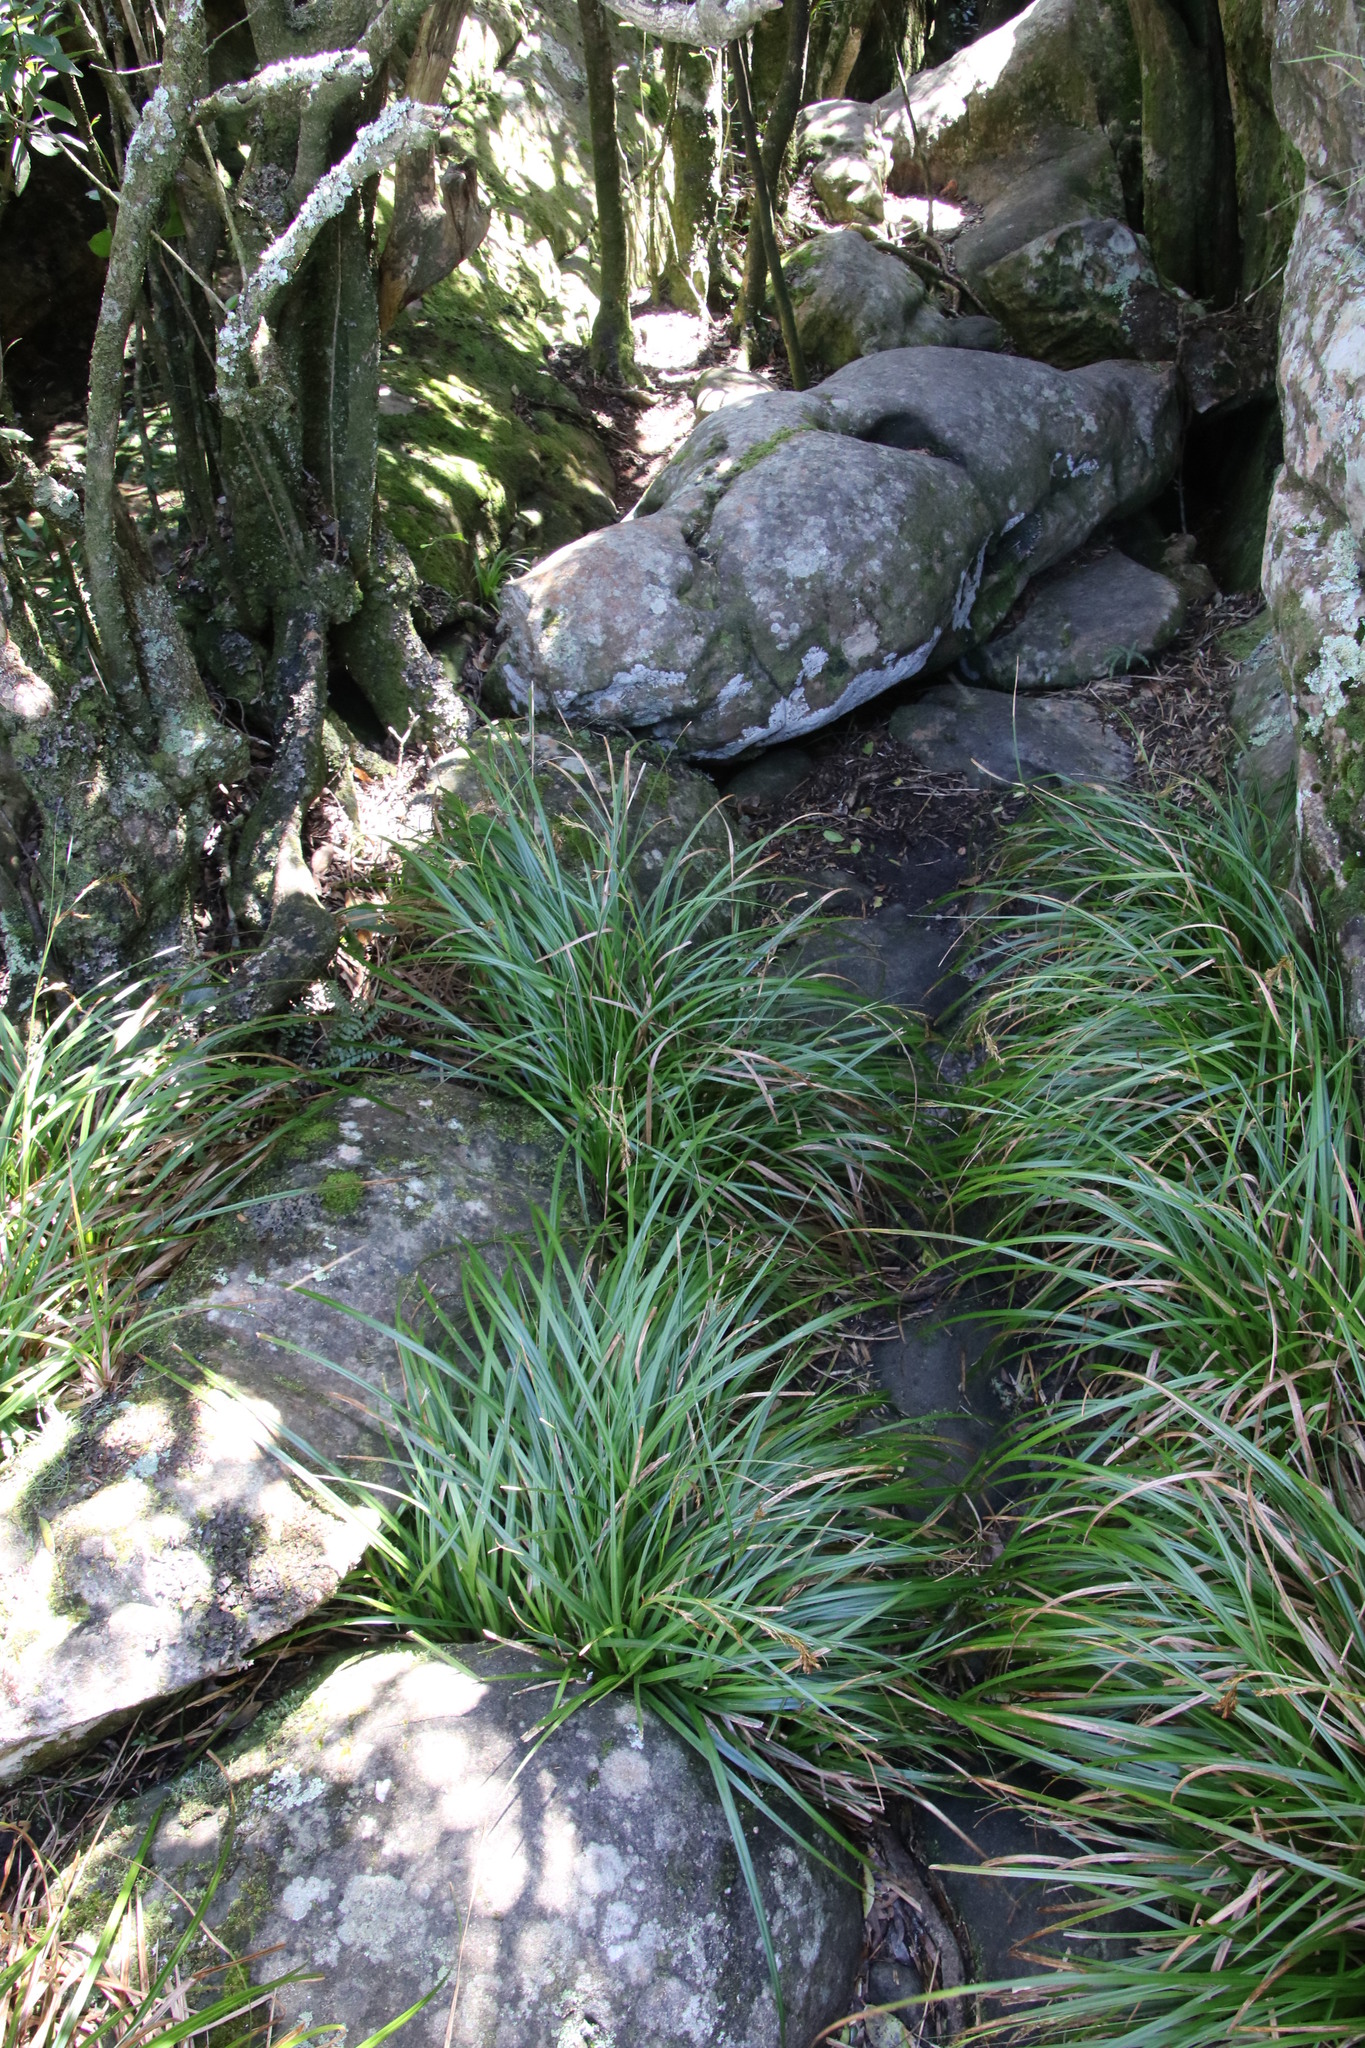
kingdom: Plantae
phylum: Tracheophyta
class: Liliopsida
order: Poales
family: Cyperaceae
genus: Carex
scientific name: Carex lancea
